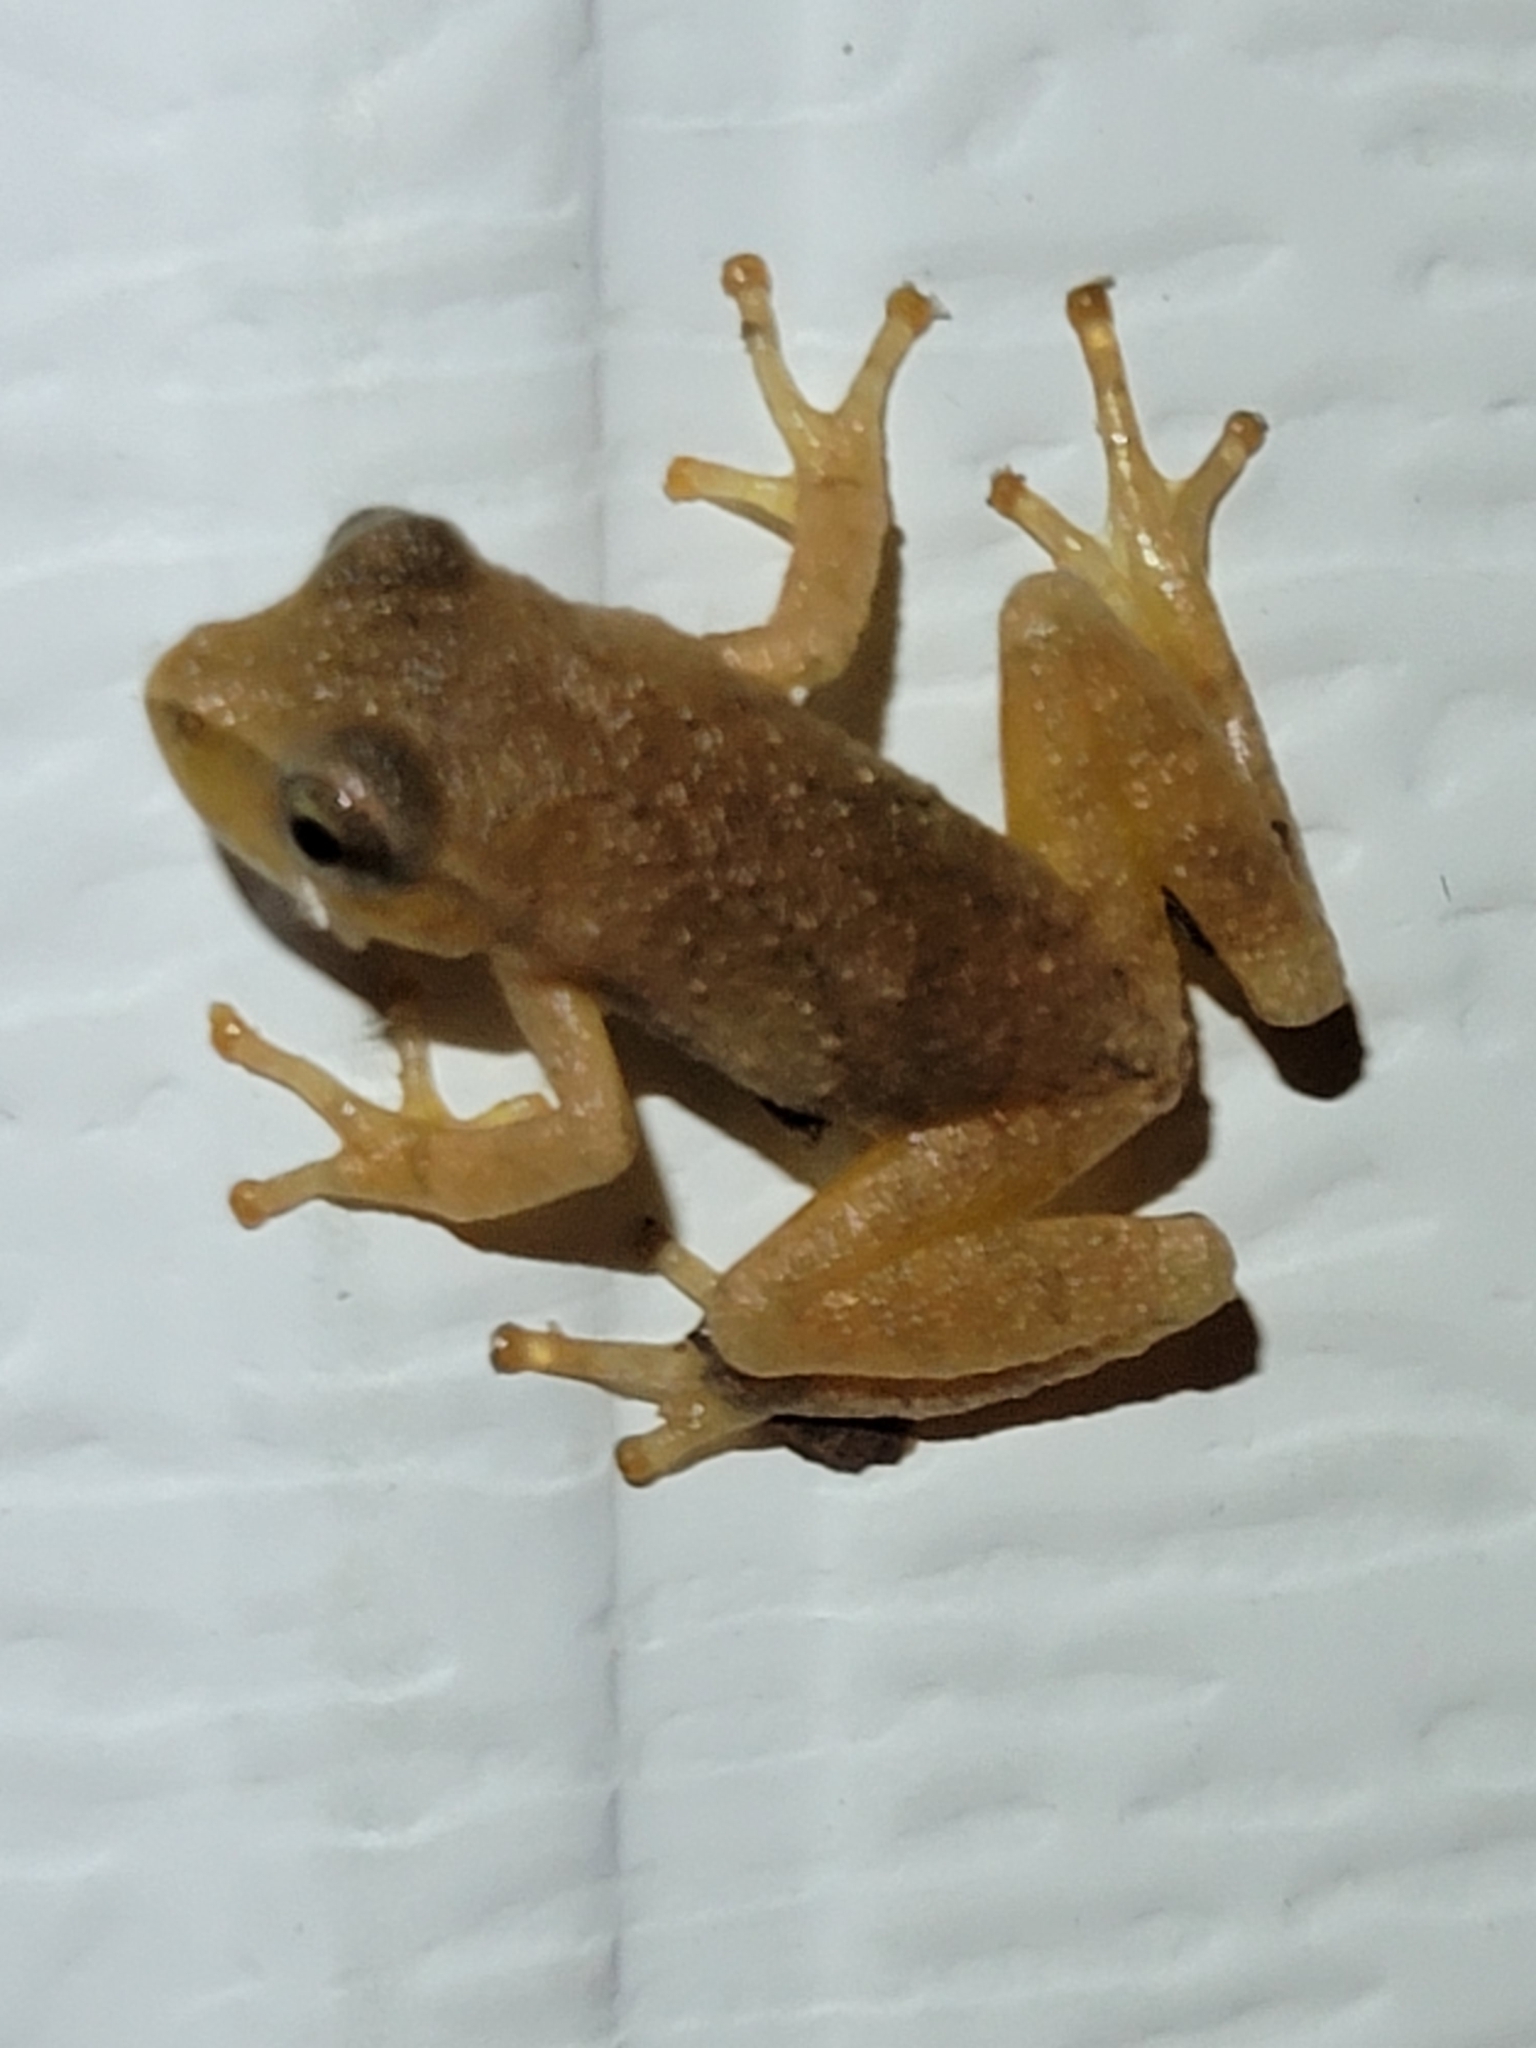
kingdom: Animalia
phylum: Chordata
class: Amphibia
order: Anura
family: Hylidae
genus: Pseudacris
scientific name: Pseudacris crucifer
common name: Spring peeper
